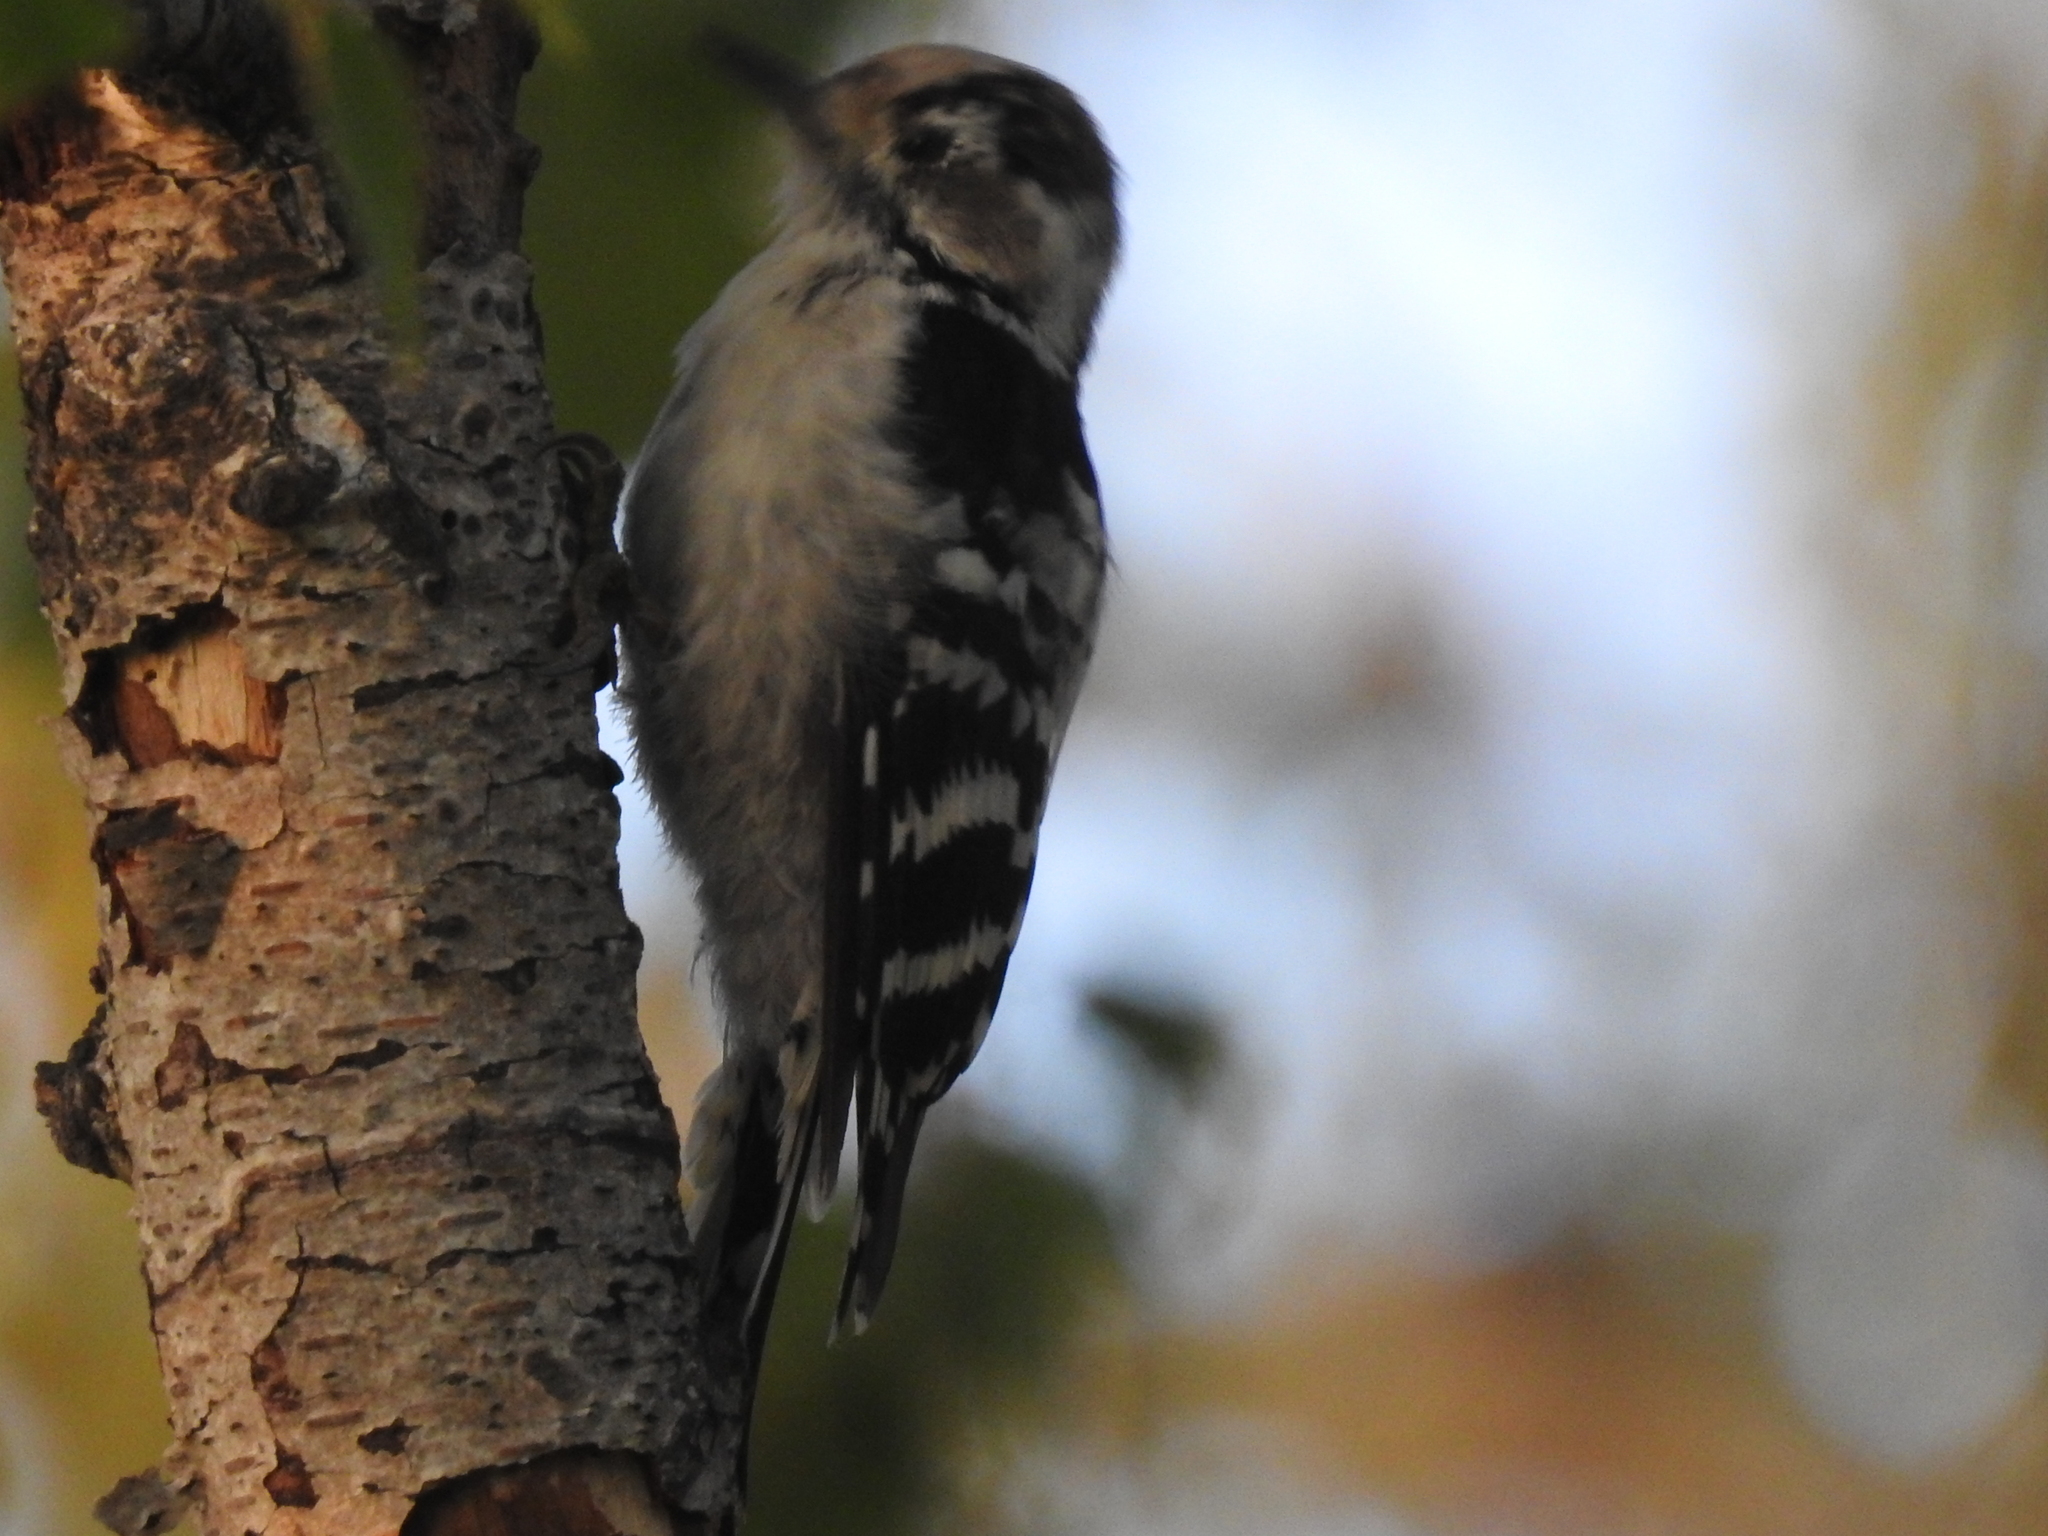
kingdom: Animalia
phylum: Chordata
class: Aves
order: Piciformes
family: Picidae
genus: Dryobates
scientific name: Dryobates minor
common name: Lesser spotted woodpecker
